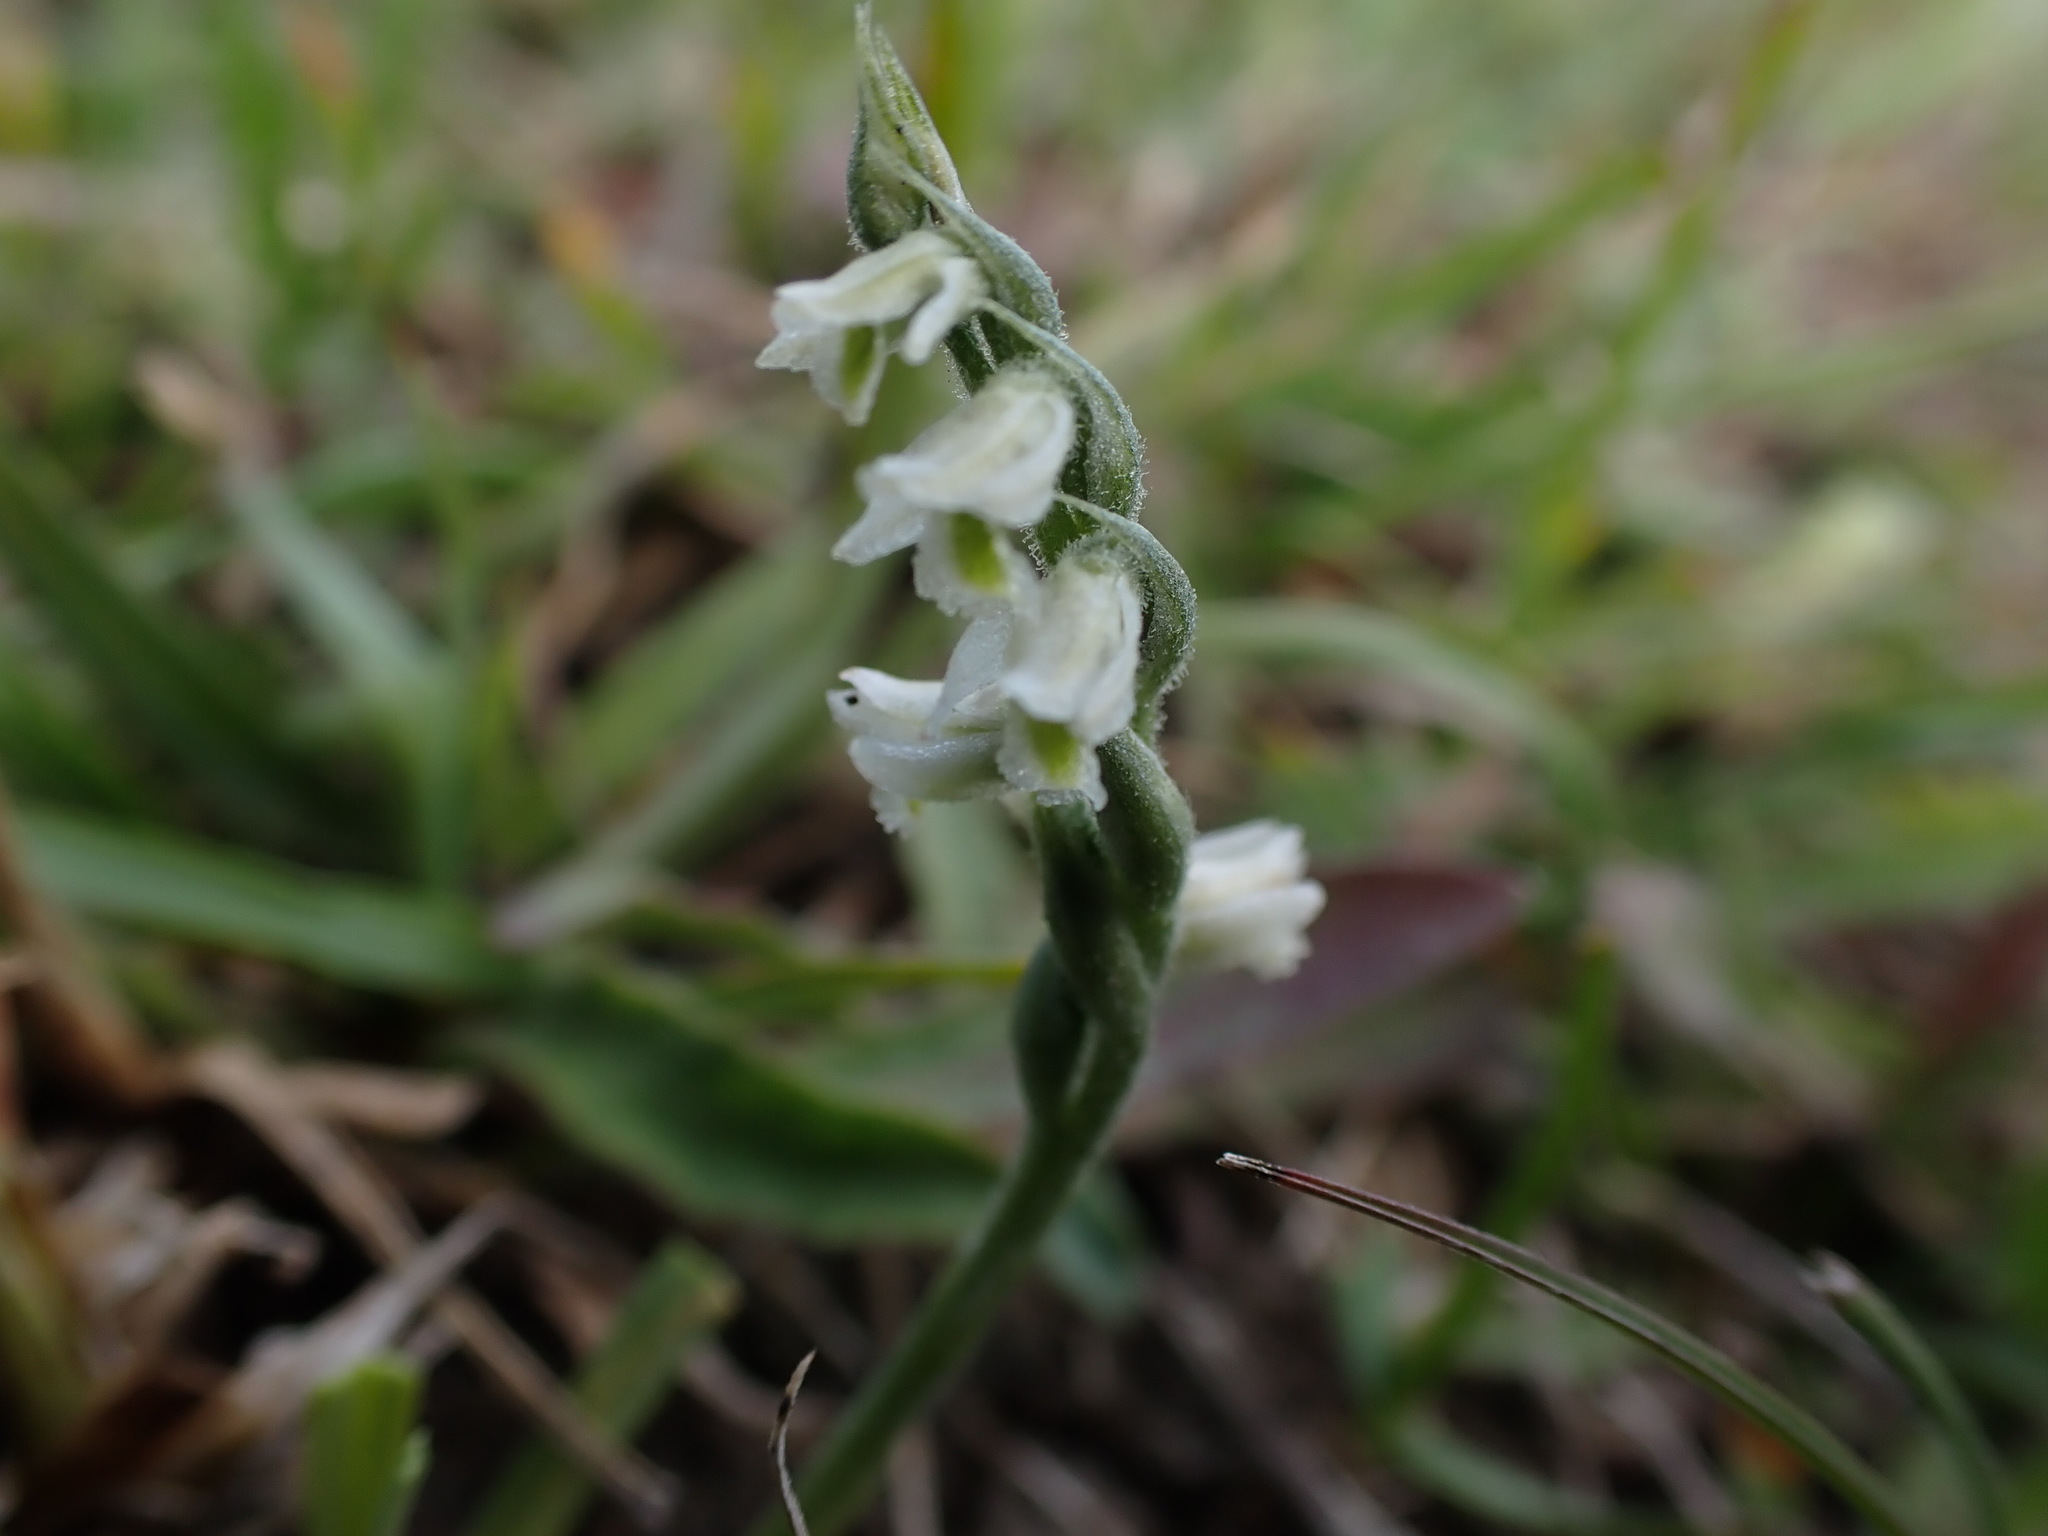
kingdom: Plantae
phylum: Tracheophyta
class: Liliopsida
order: Asparagales
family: Orchidaceae
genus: Spiranthes
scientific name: Spiranthes spiralis
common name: Autumn lady's-tresses
